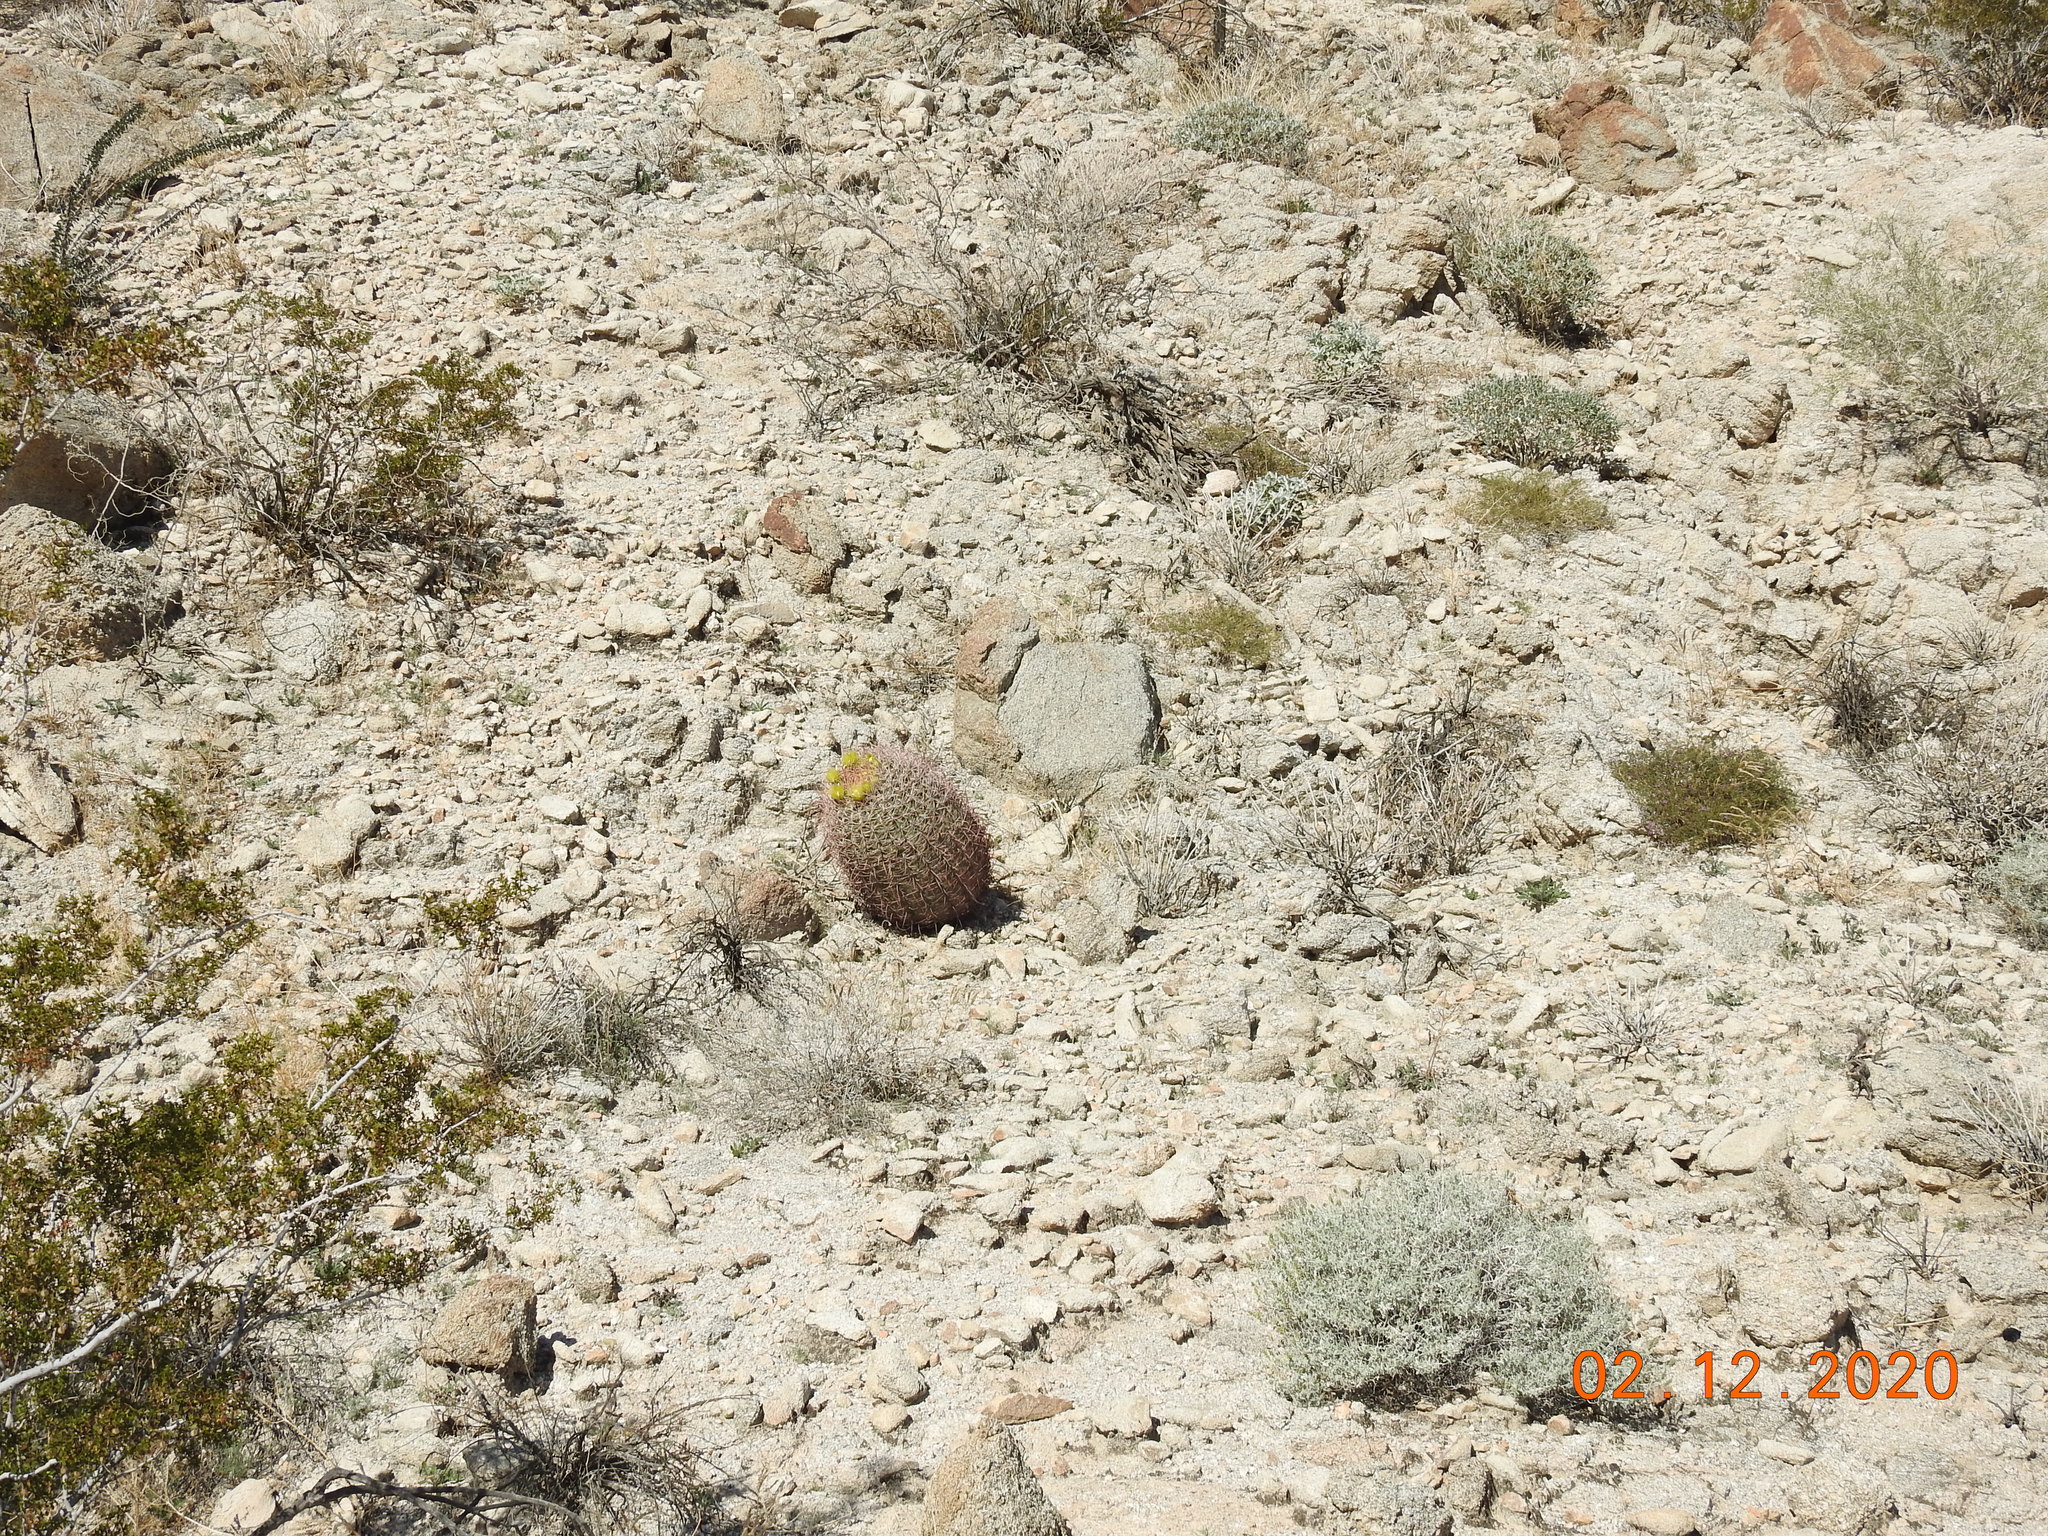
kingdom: Plantae
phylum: Tracheophyta
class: Magnoliopsida
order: Caryophyllales
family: Cactaceae
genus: Ferocactus
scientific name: Ferocactus cylindraceus
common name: California barrel cactus
